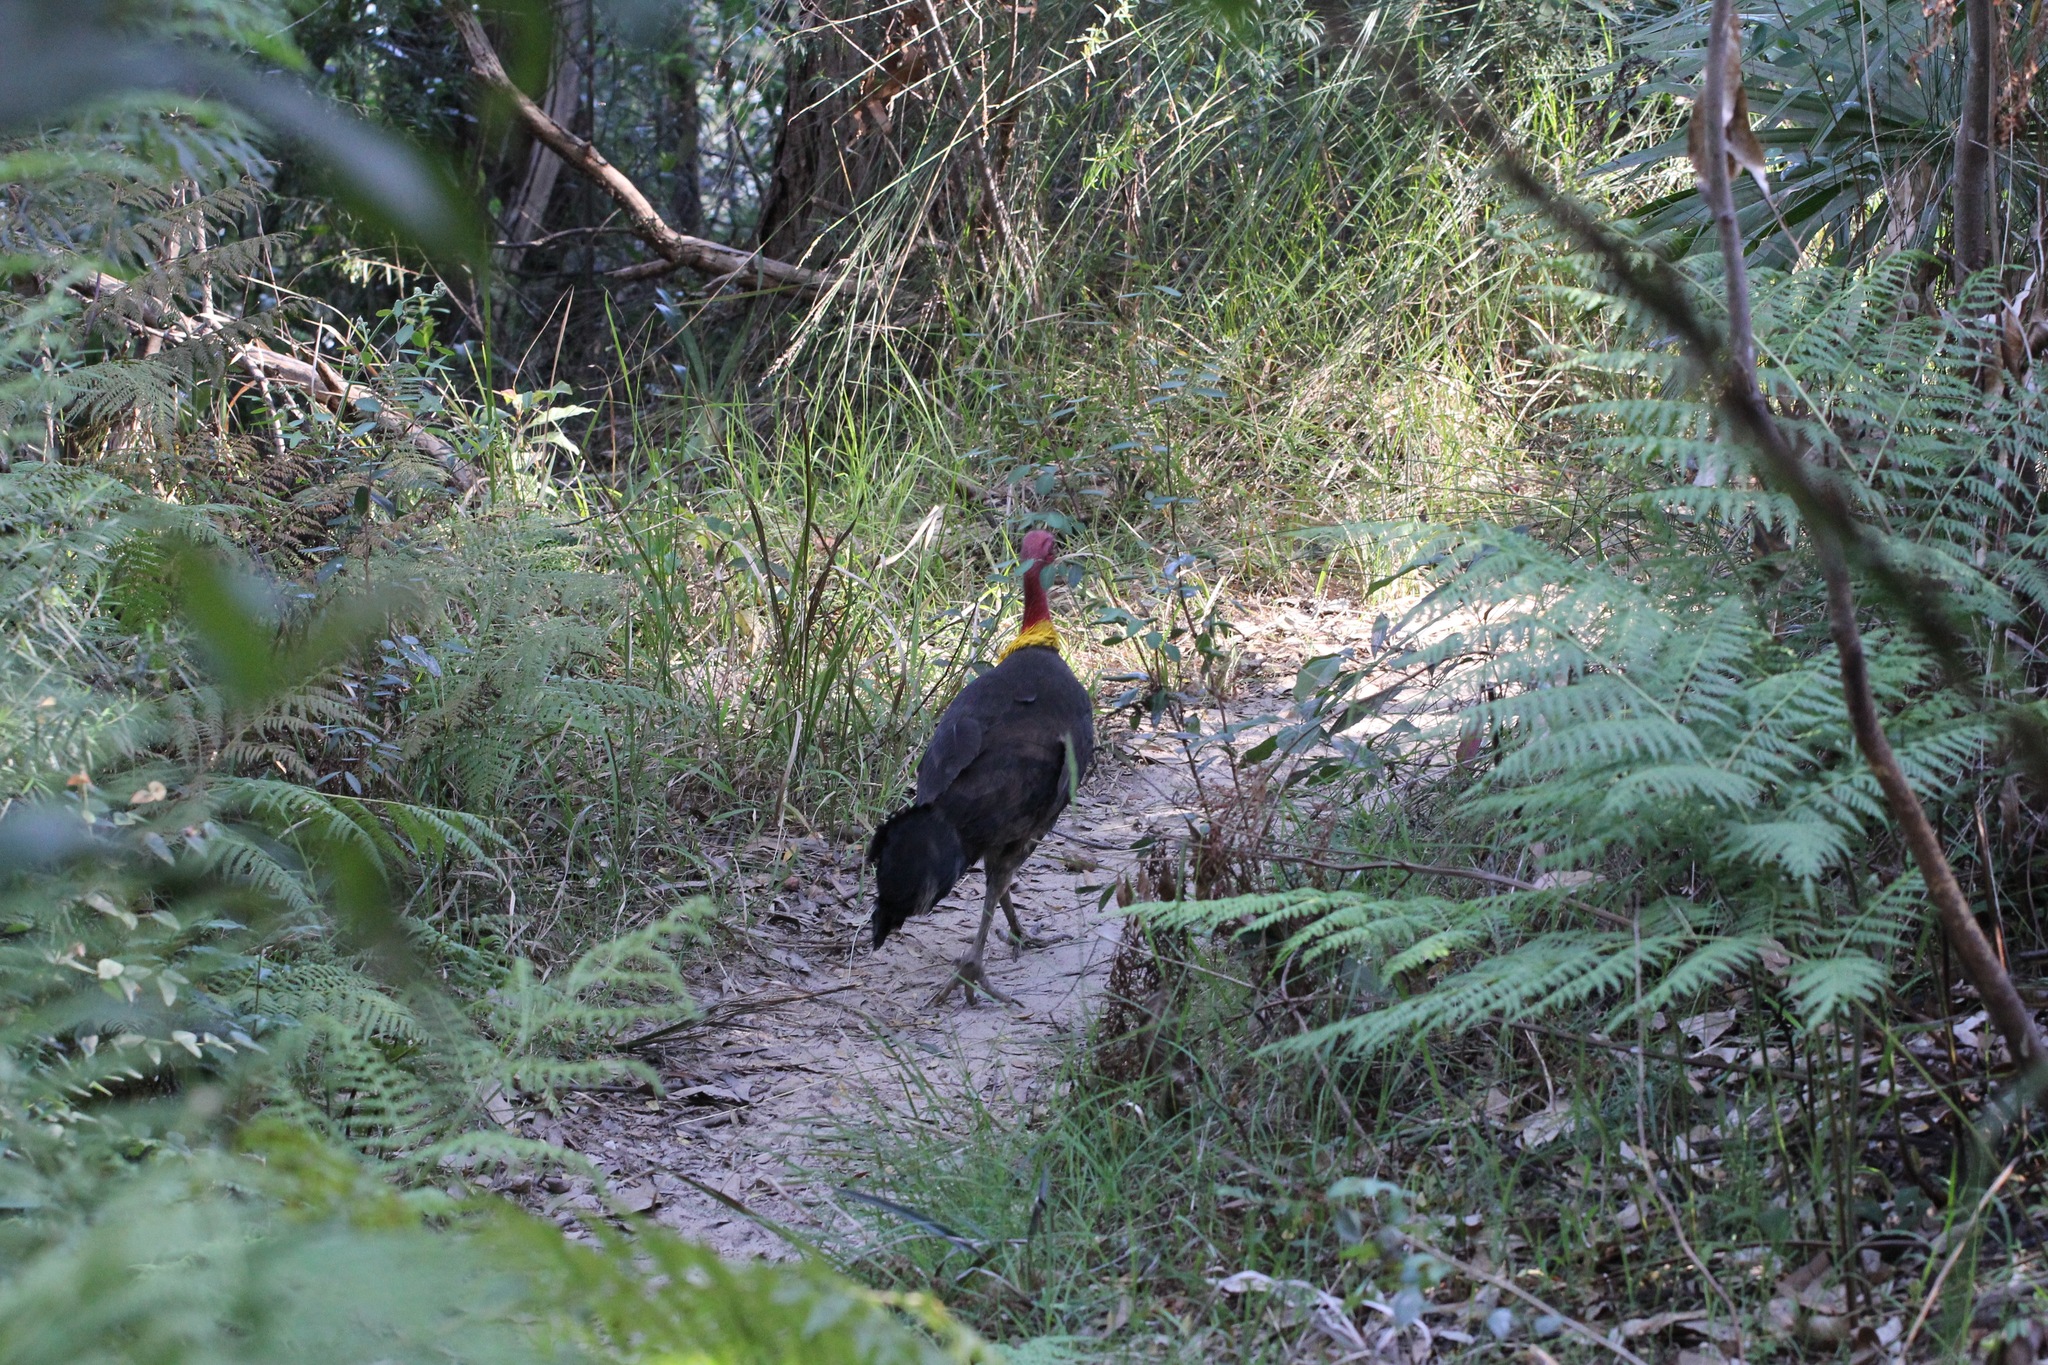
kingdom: Animalia
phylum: Chordata
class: Aves
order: Galliformes
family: Megapodiidae
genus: Alectura
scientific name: Alectura lathami
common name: Australian brushturkey
